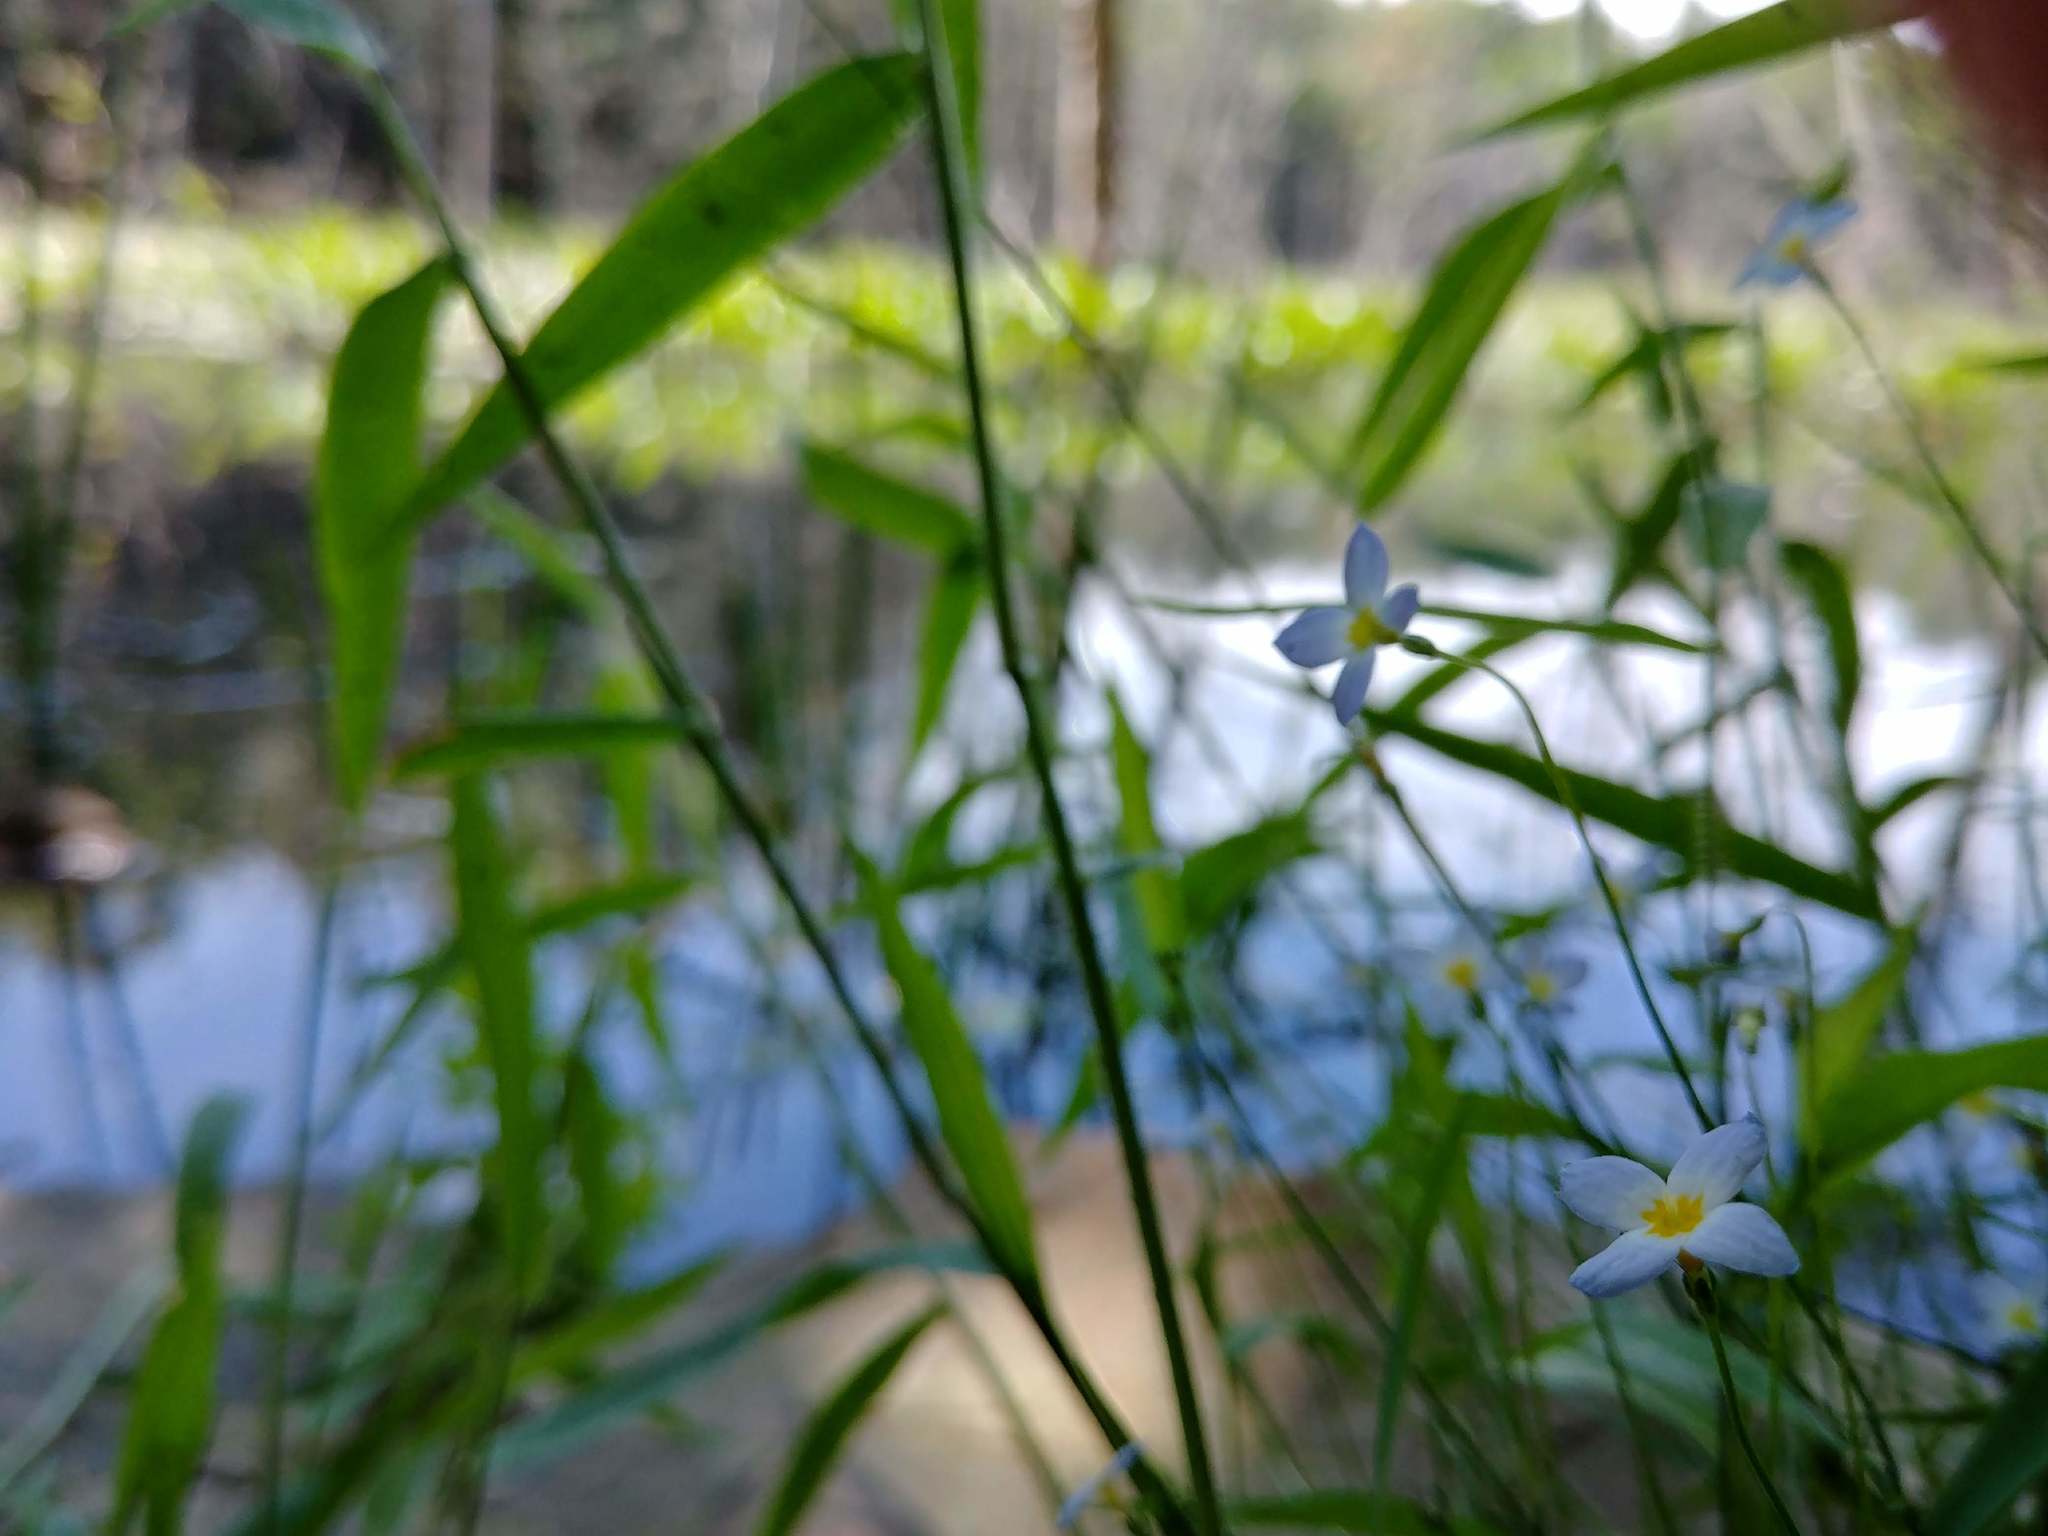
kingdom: Plantae
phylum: Tracheophyta
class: Magnoliopsida
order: Gentianales
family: Rubiaceae
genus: Houstonia
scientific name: Houstonia caerulea
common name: Bluets
